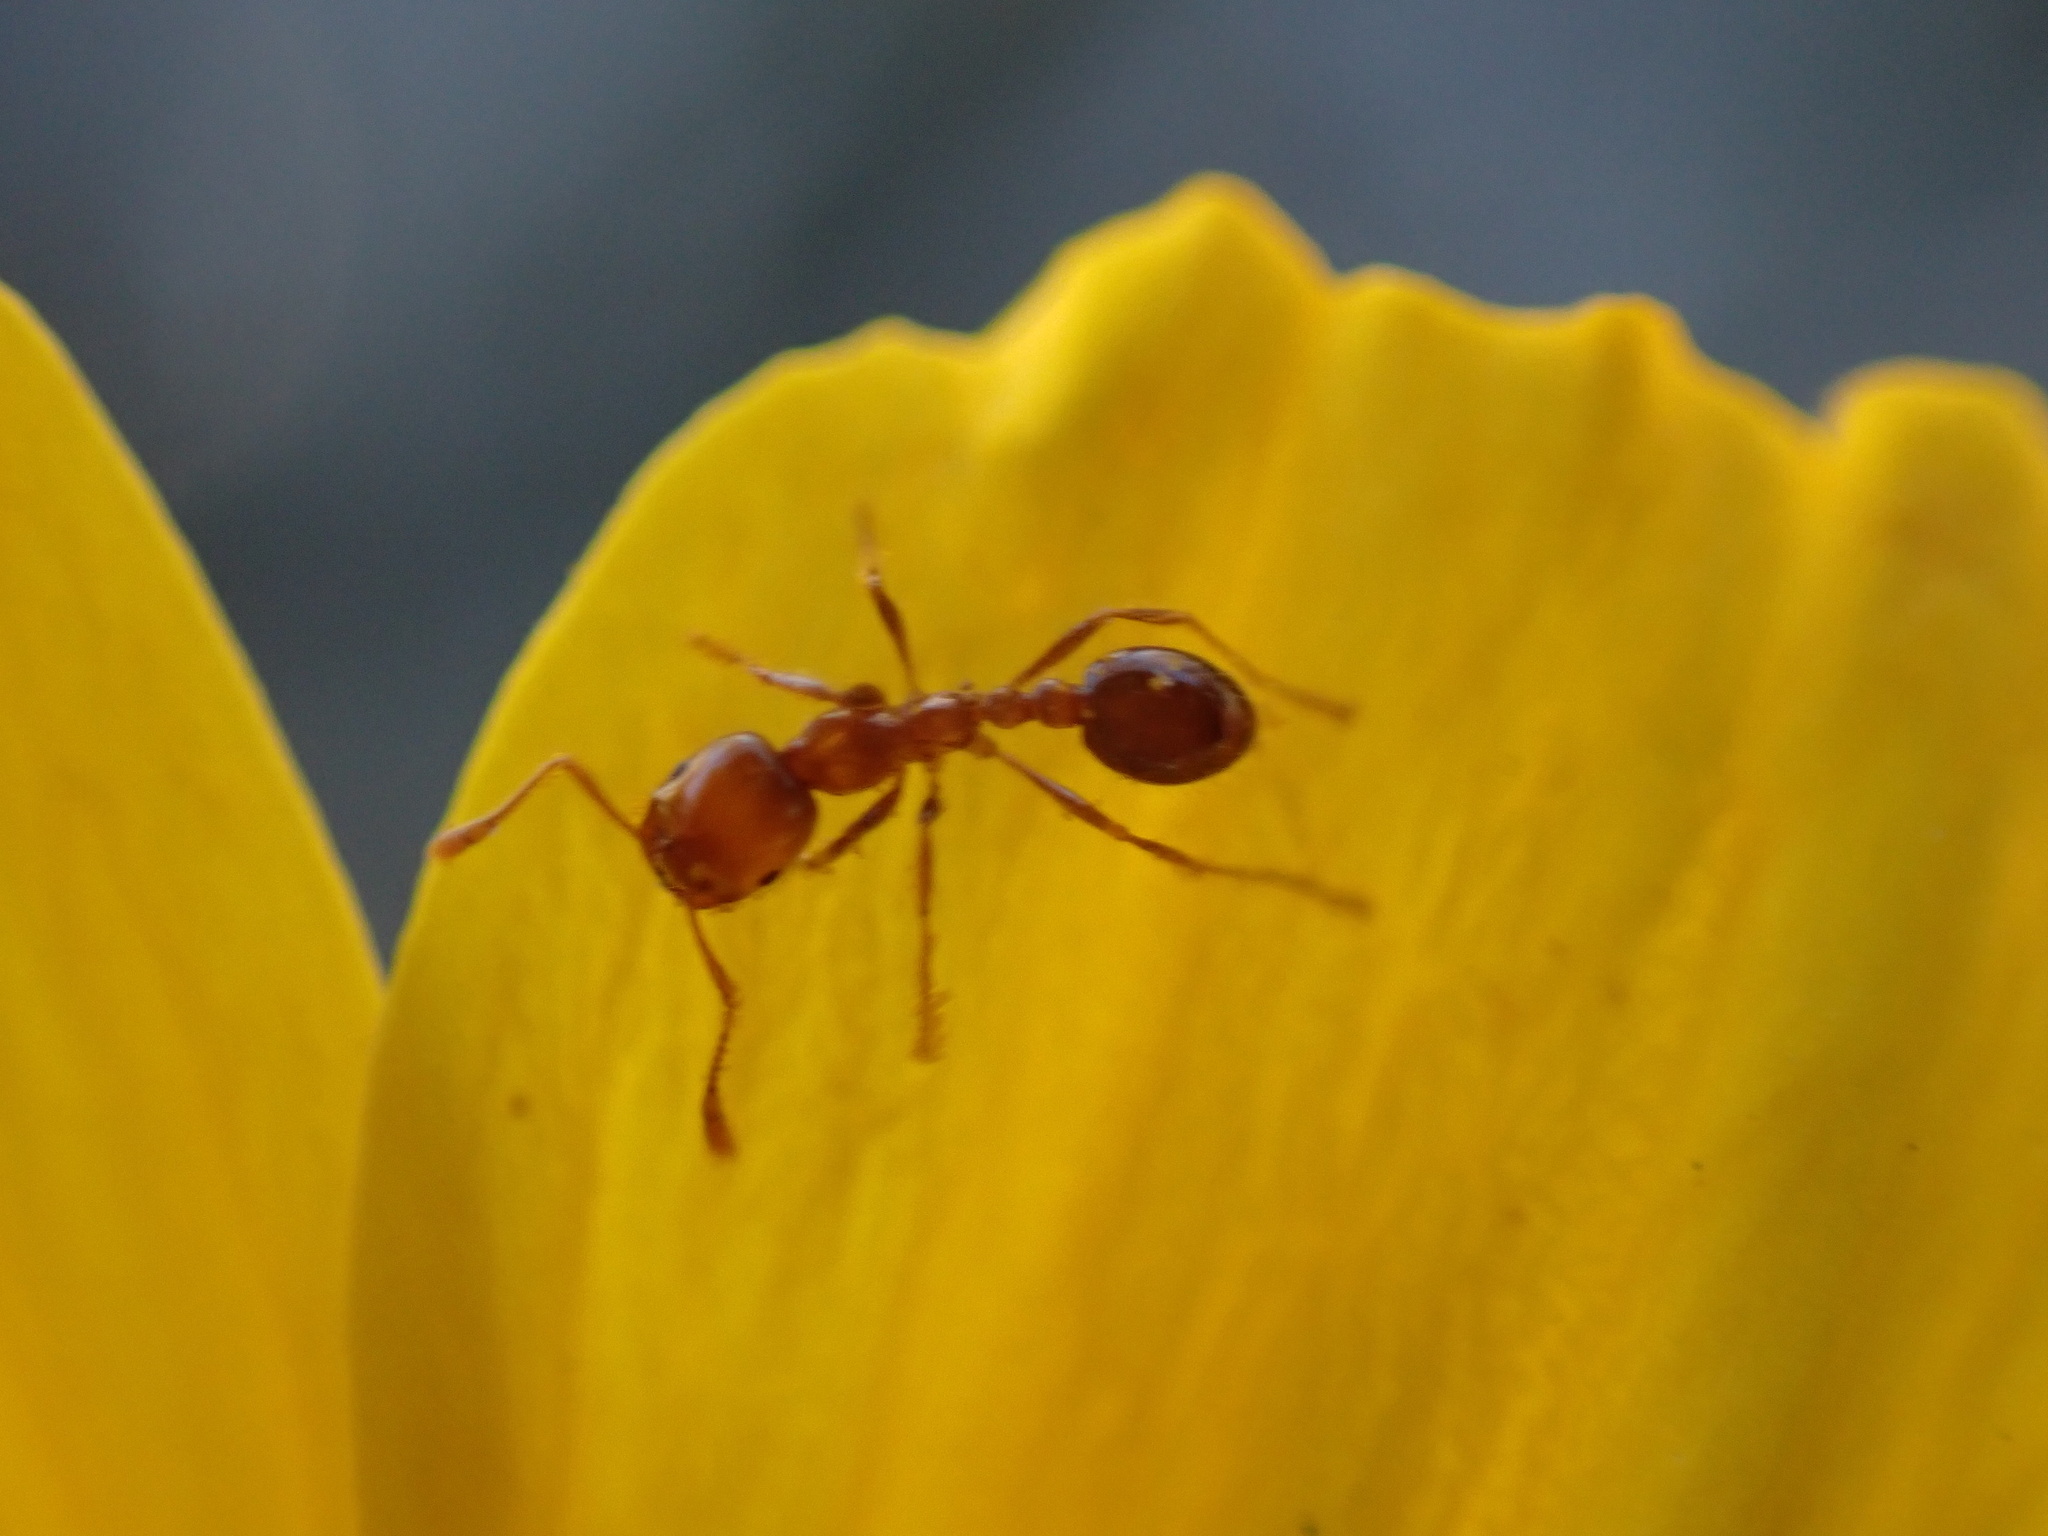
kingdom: Animalia
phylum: Arthropoda
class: Insecta
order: Hymenoptera
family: Formicidae
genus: Solenopsis
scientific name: Solenopsis xyloni
